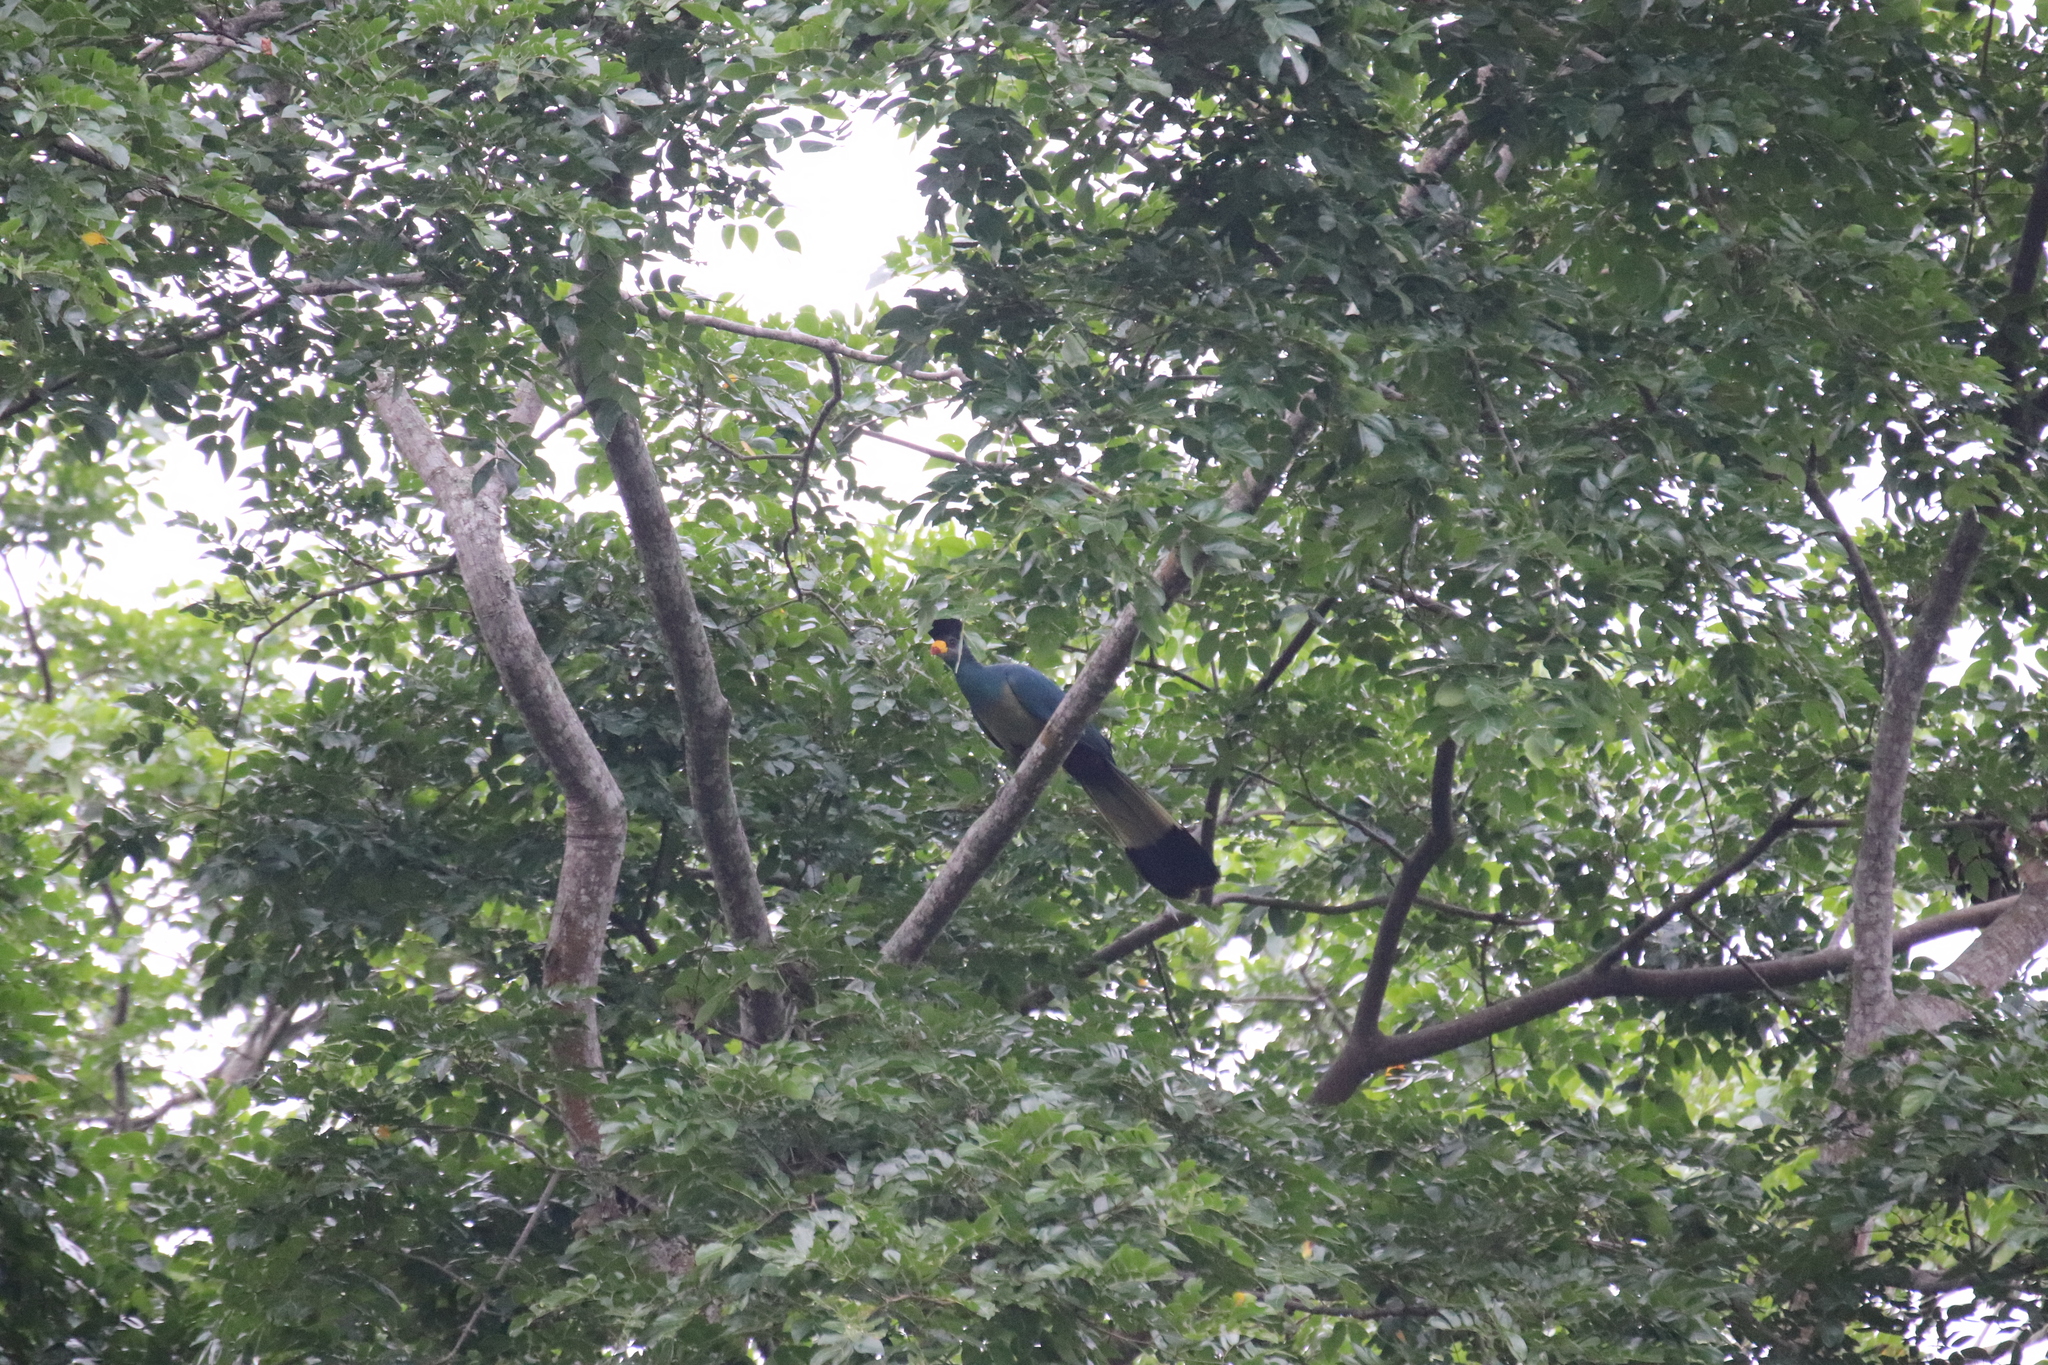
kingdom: Animalia
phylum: Chordata
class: Aves
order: Musophagiformes
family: Musophagidae
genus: Corythaeola
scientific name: Corythaeola cristata
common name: Great blue turaco
